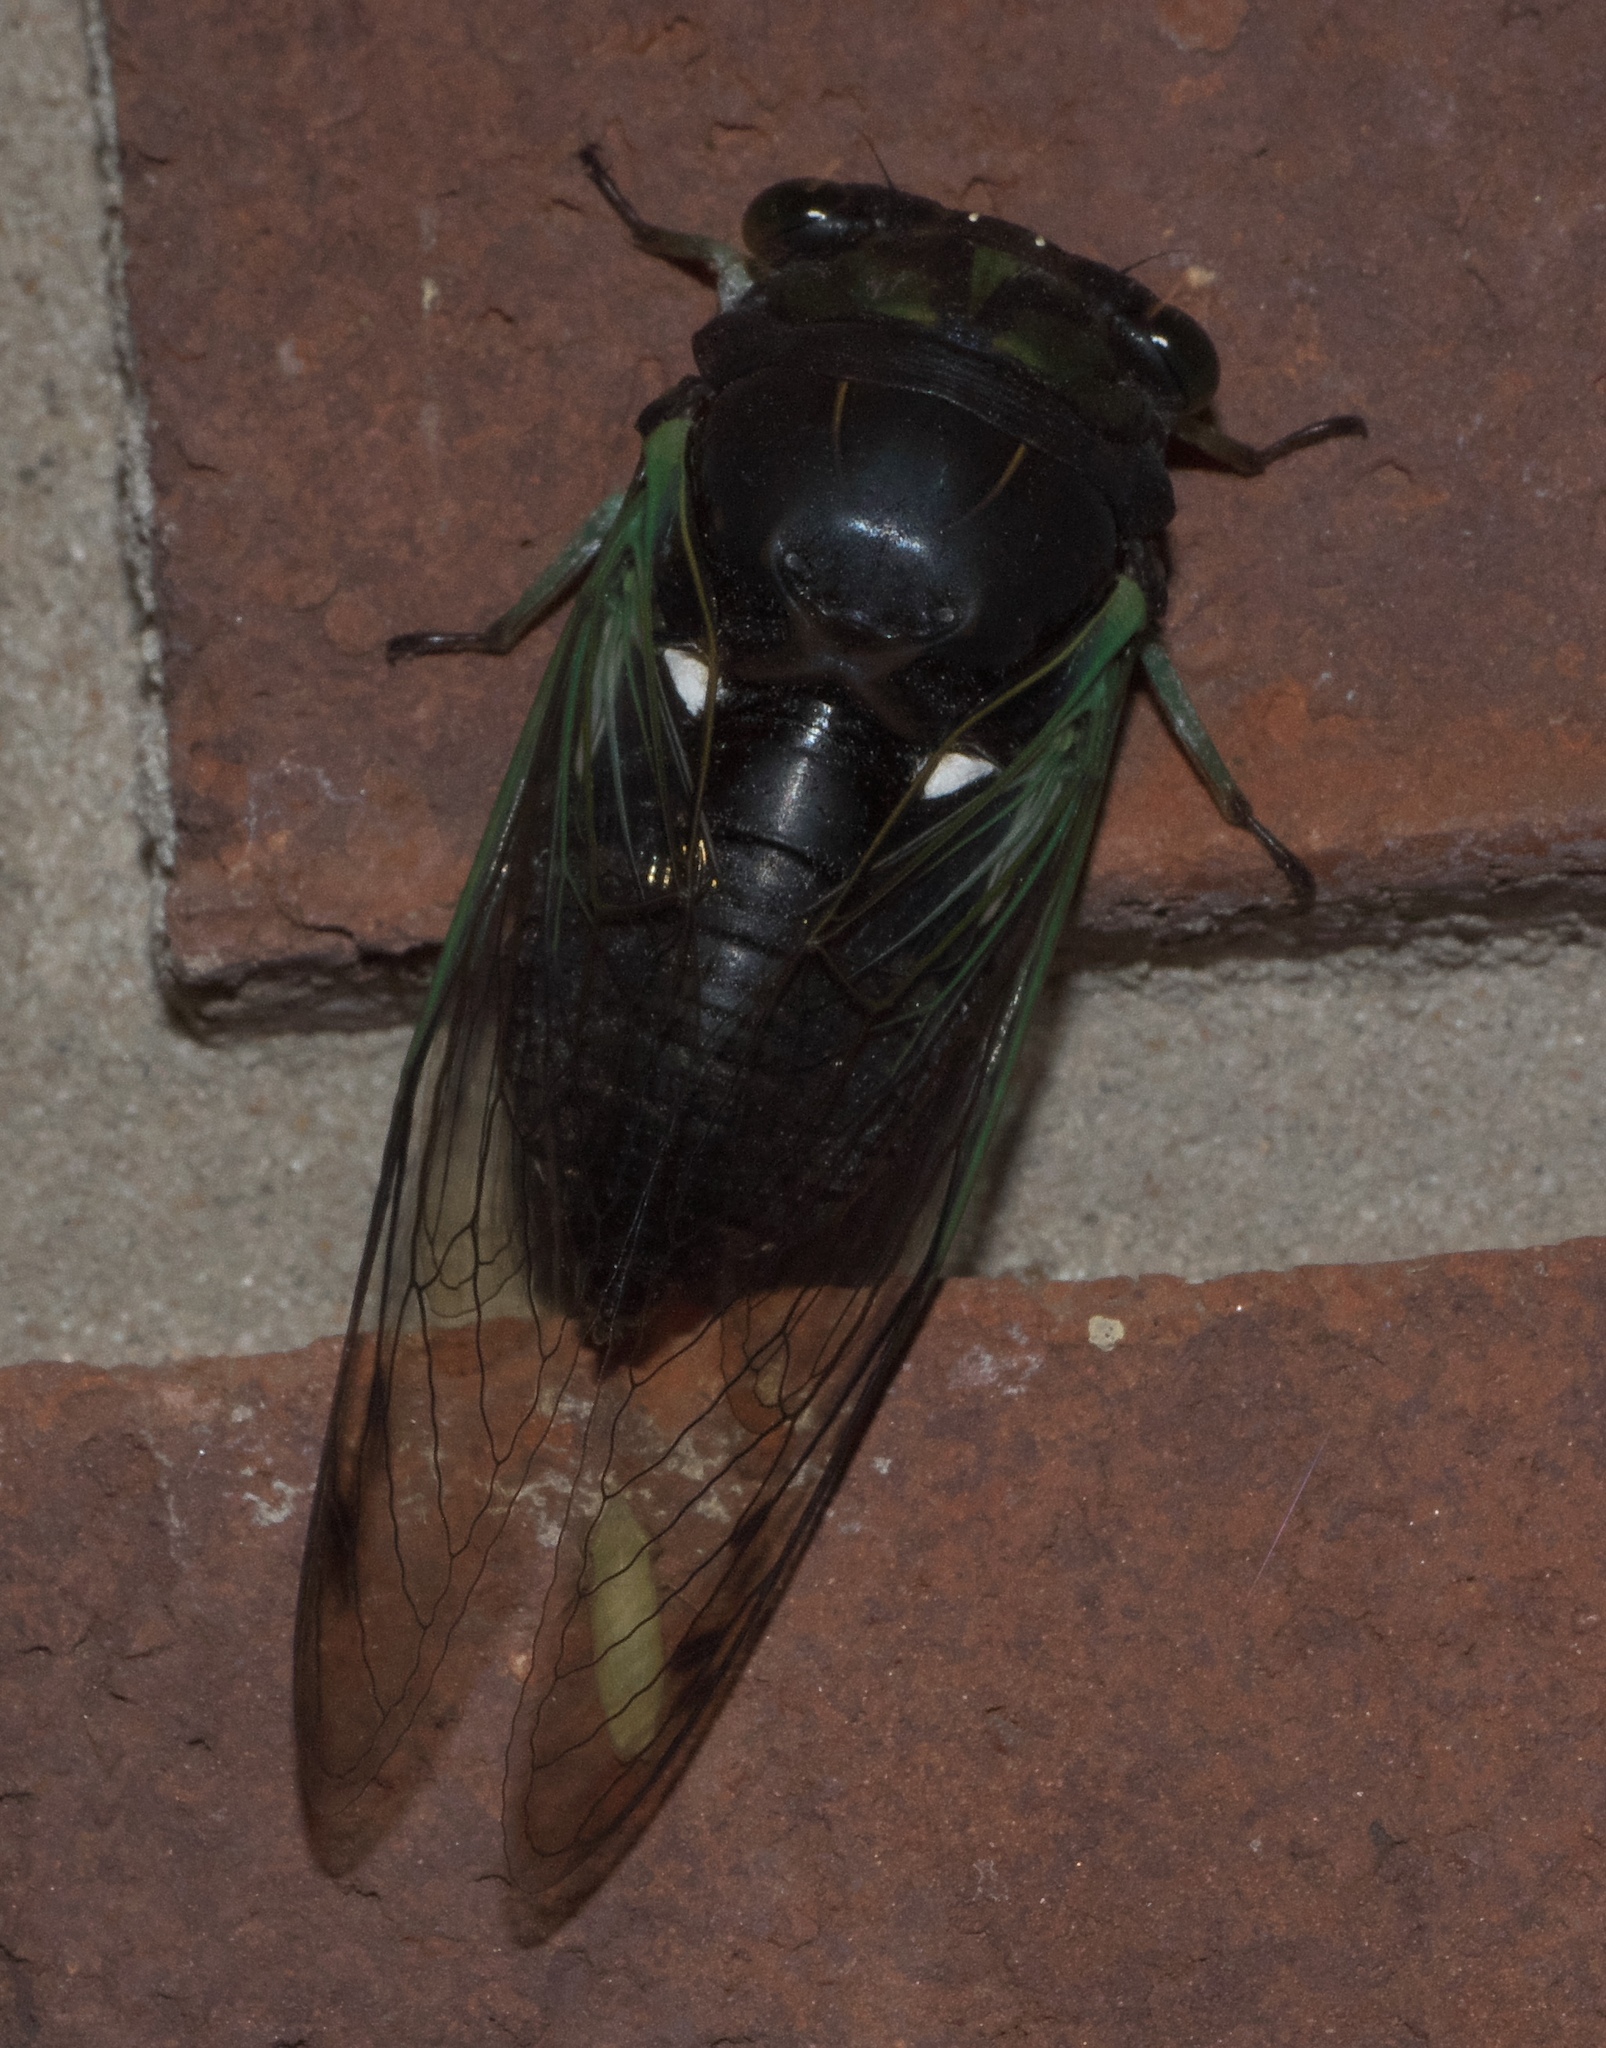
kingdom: Animalia
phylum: Arthropoda
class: Insecta
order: Hemiptera
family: Cicadidae
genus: Neotibicen
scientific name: Neotibicen tibicen
